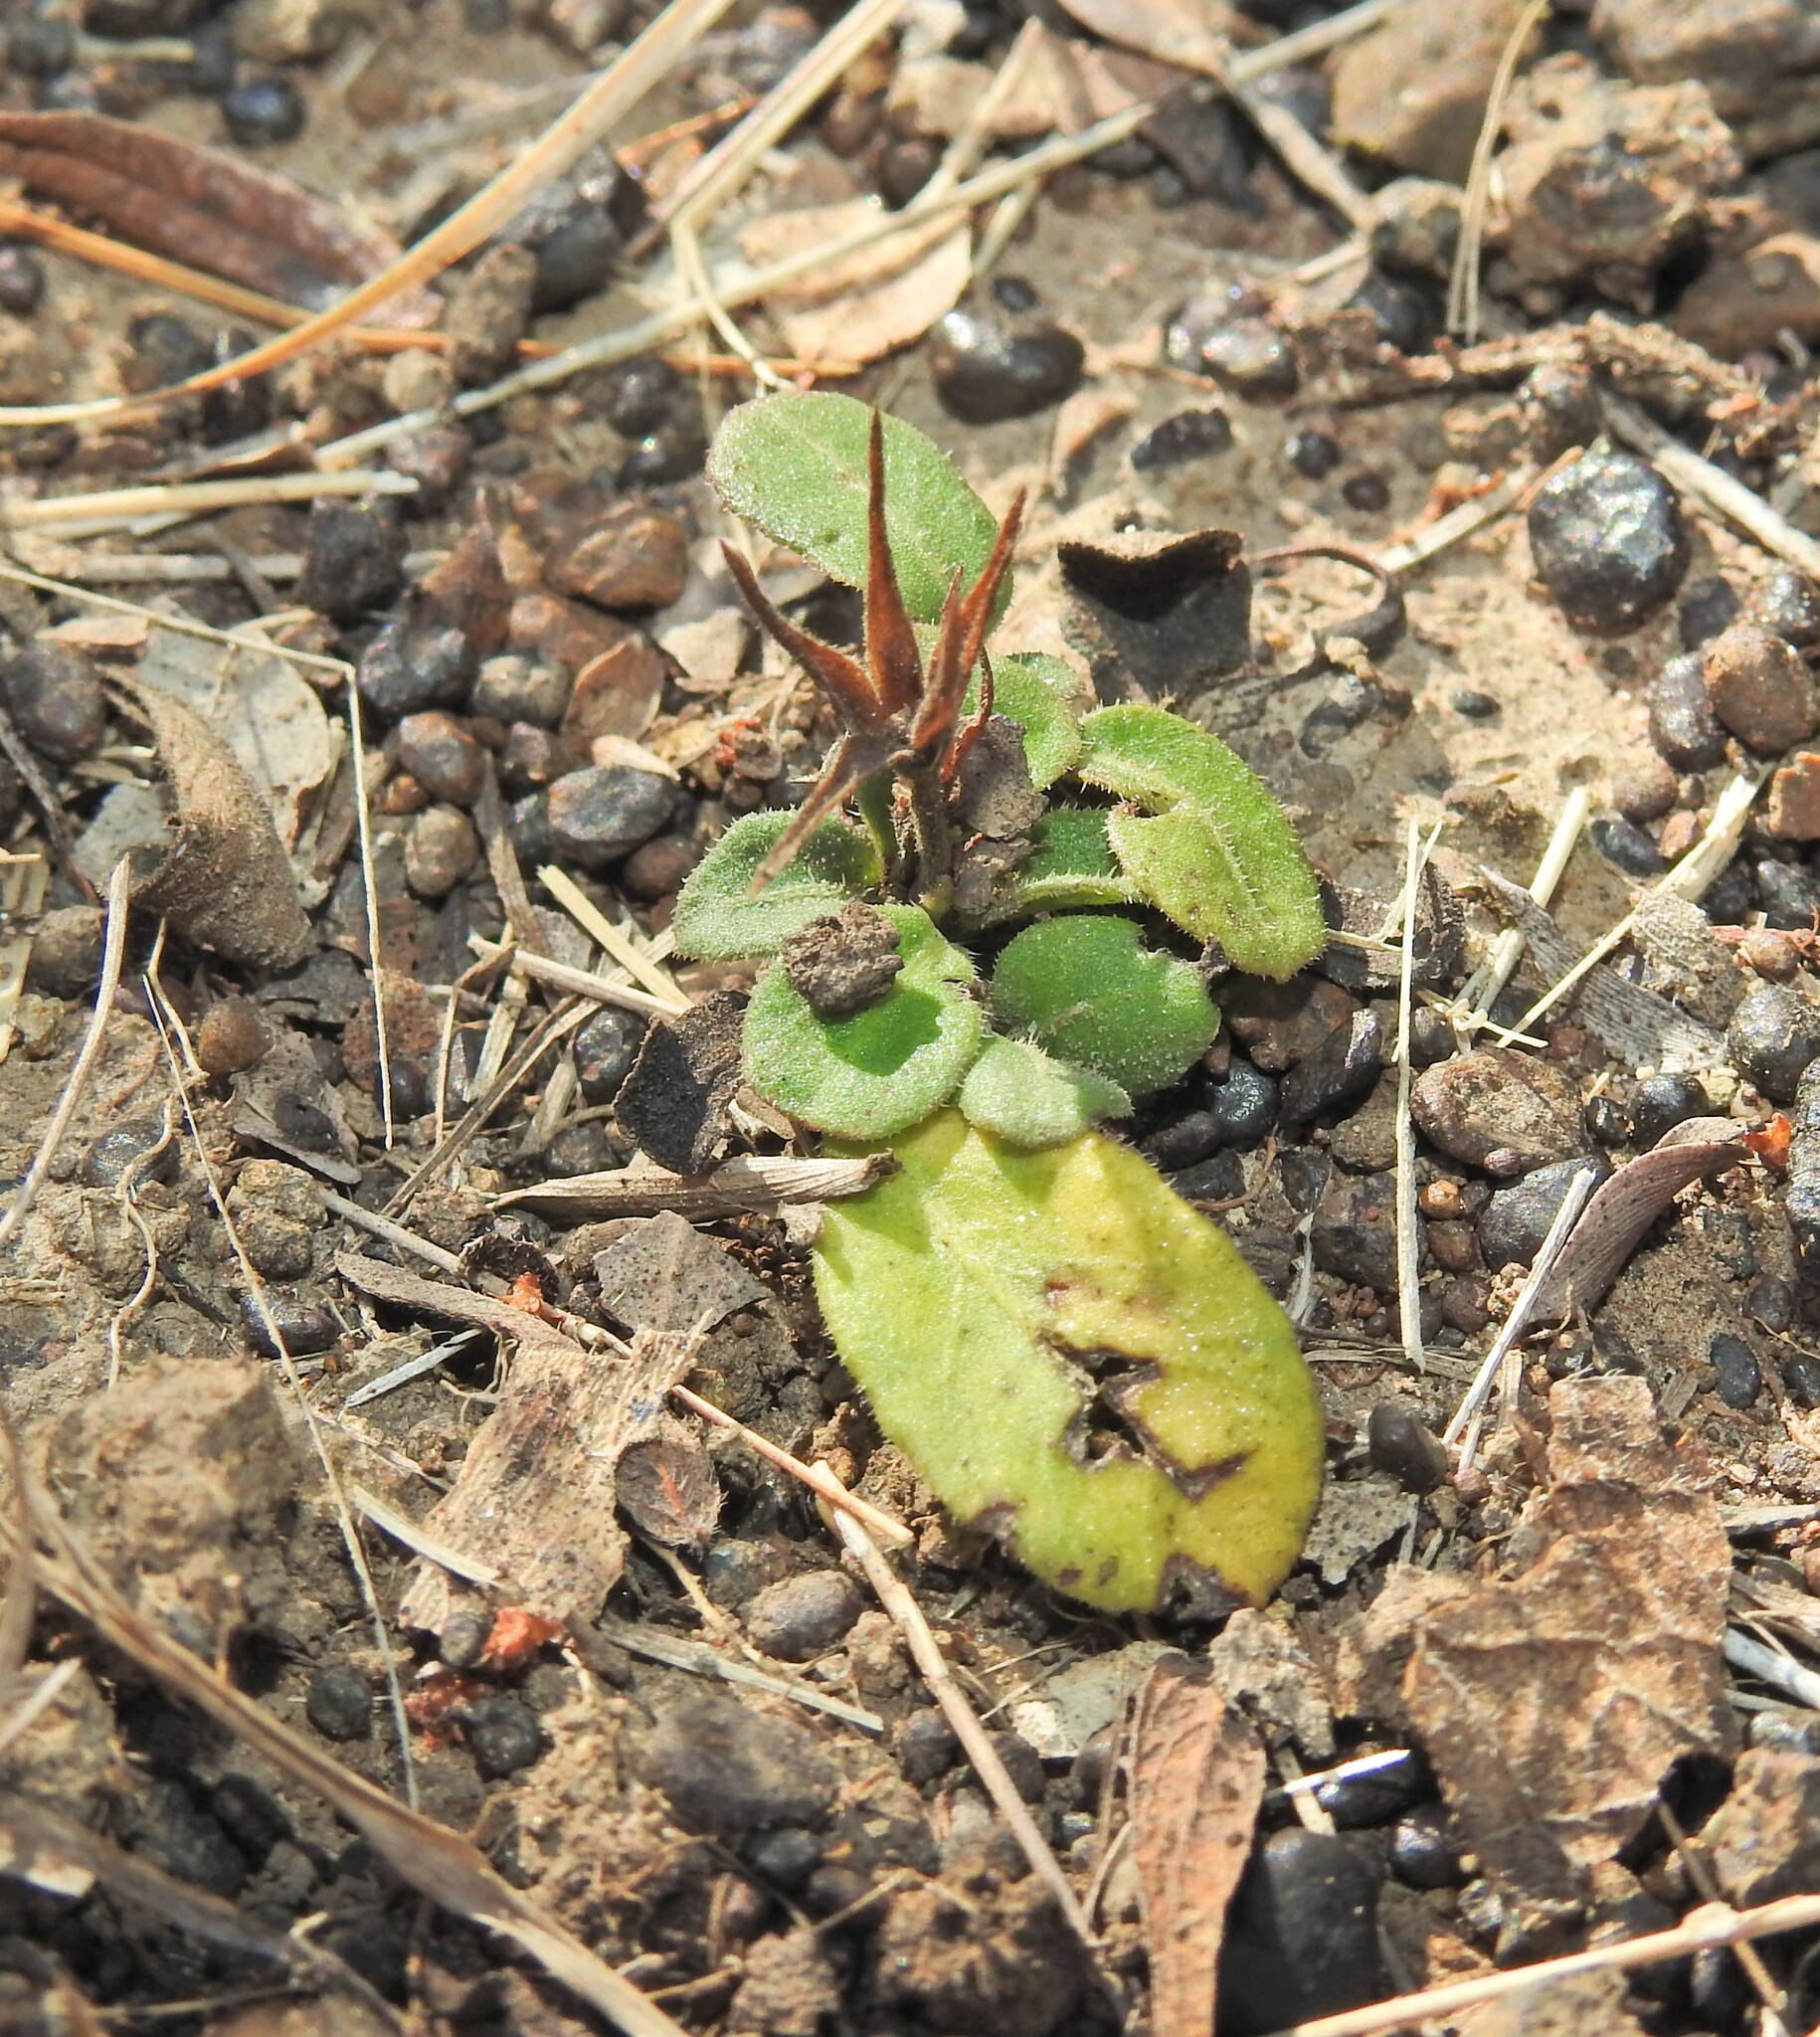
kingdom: Plantae
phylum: Tracheophyta
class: Magnoliopsida
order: Lamiales
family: Acanthaceae
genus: Brunoniella
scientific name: Brunoniella acaulis
